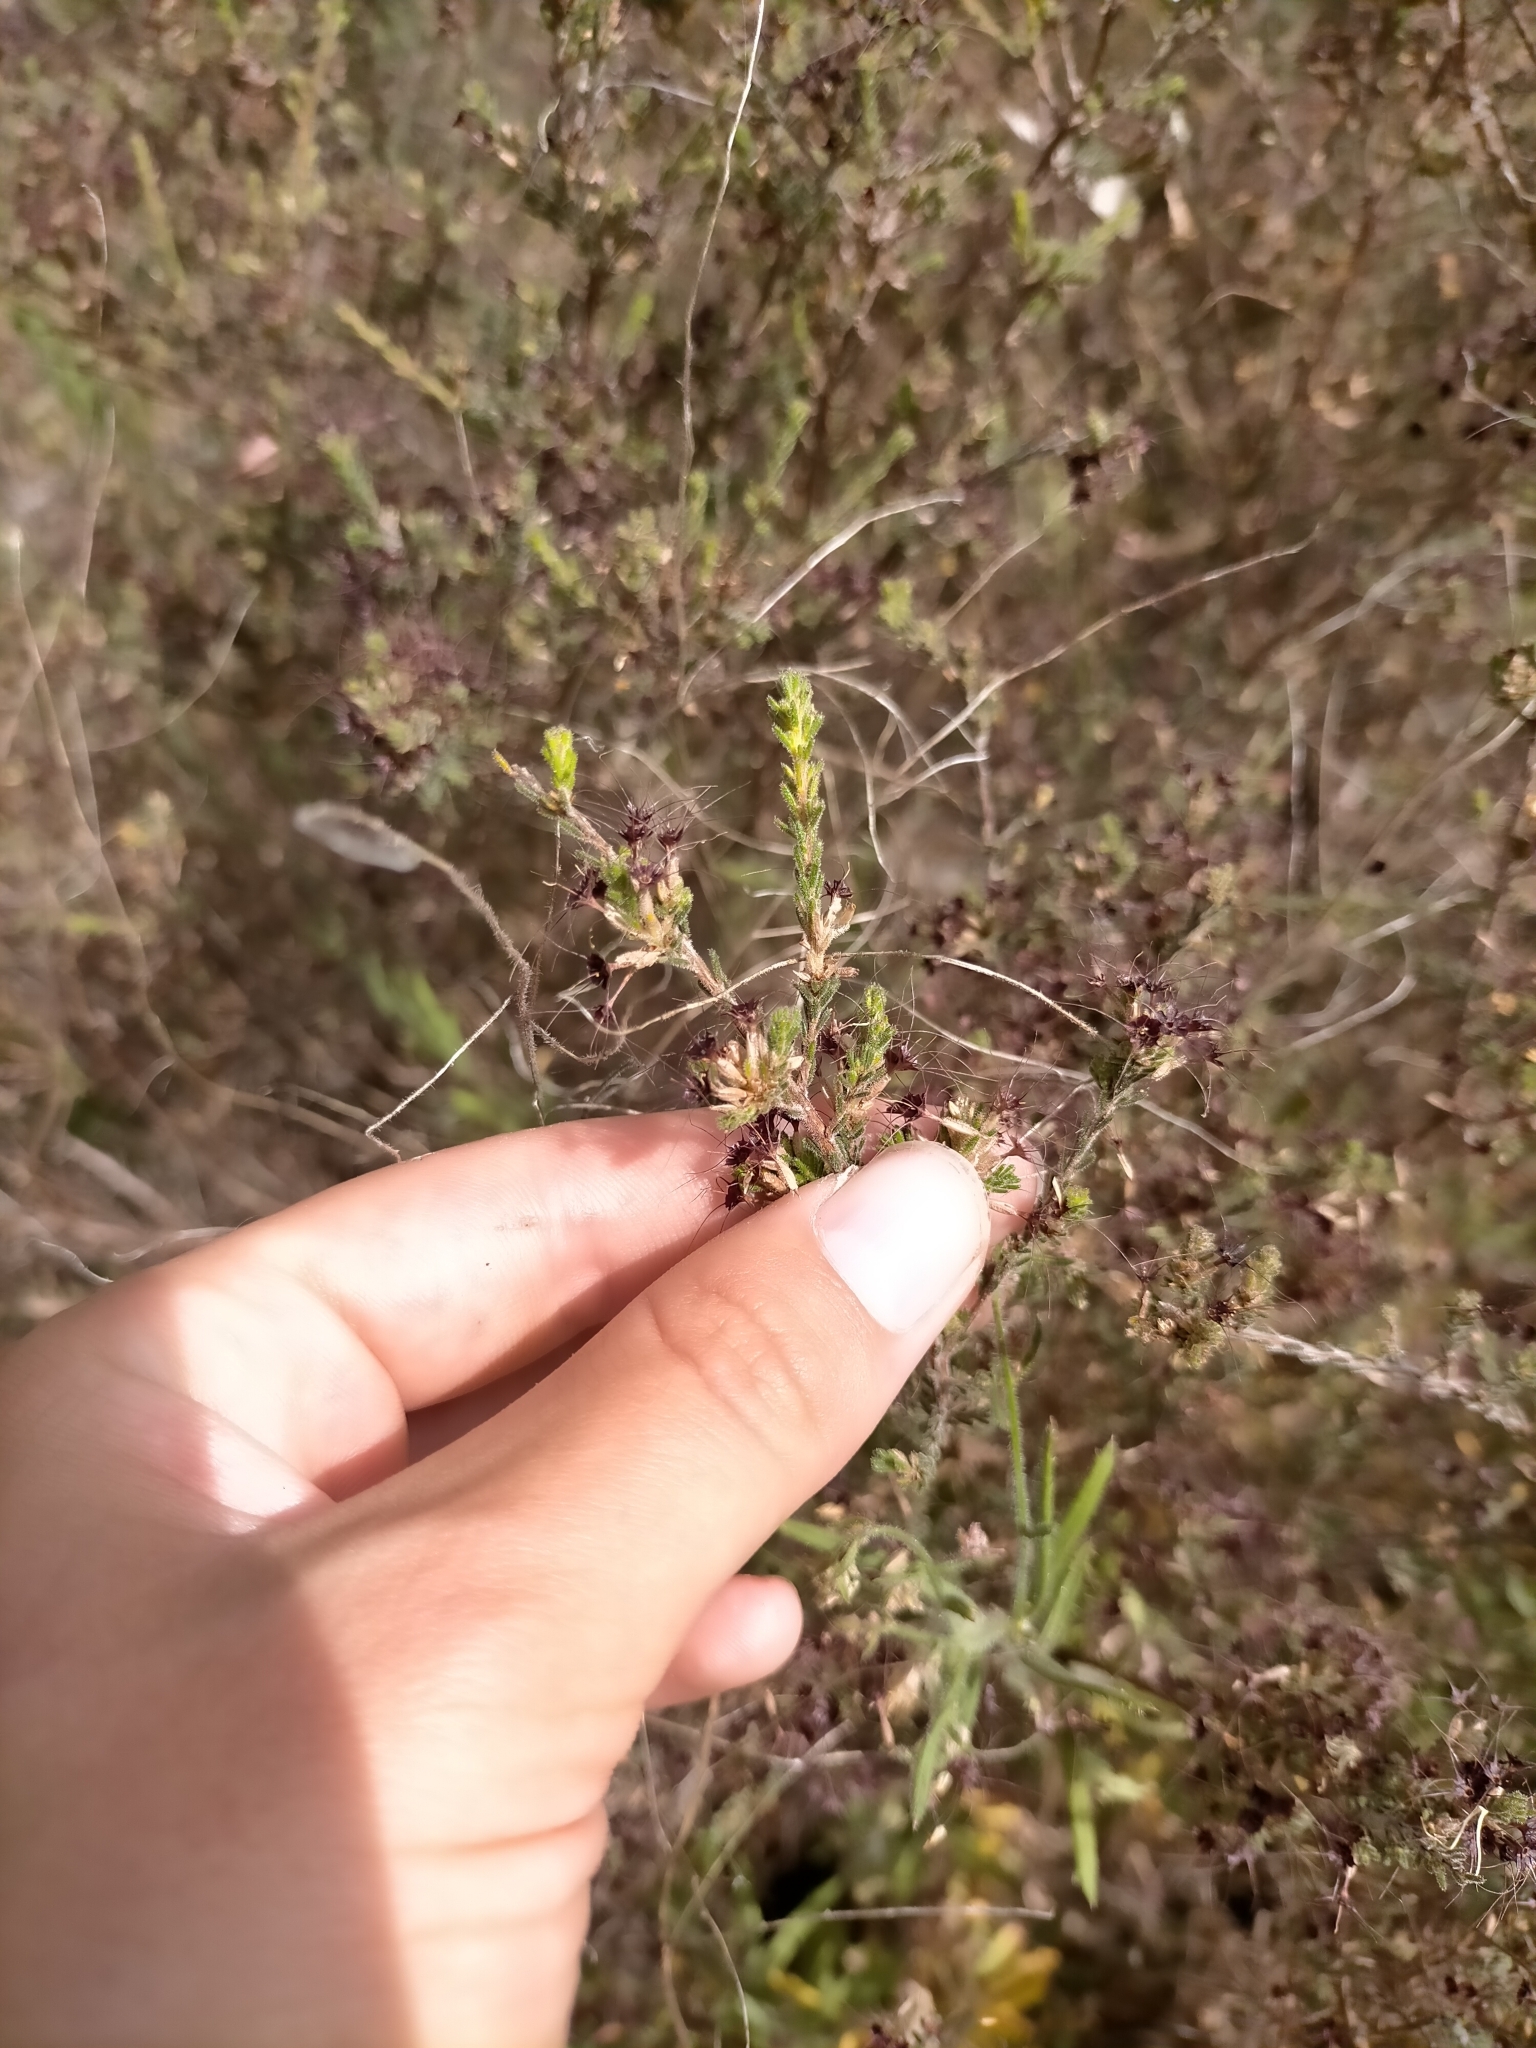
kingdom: Plantae
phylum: Tracheophyta
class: Magnoliopsida
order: Myrtales
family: Myrtaceae
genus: Calytrix
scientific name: Calytrix tetragona
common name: Common fringe myrtle
